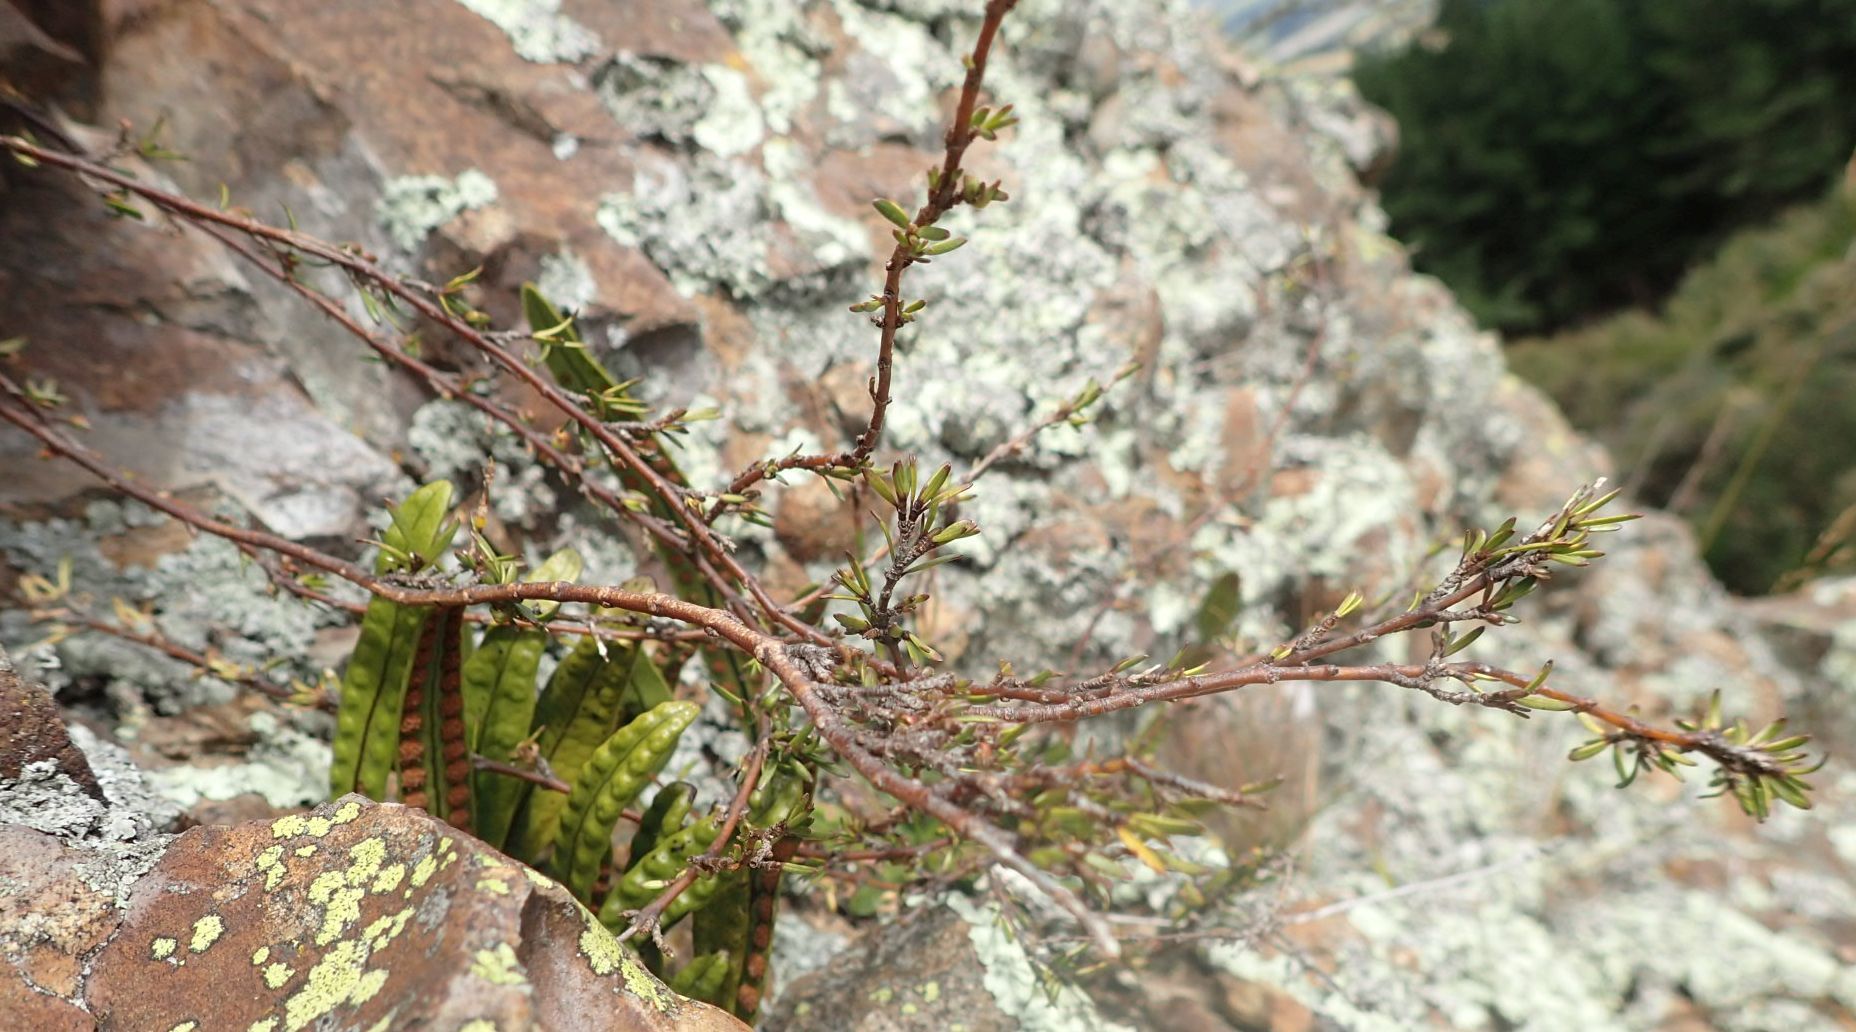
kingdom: Plantae
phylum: Tracheophyta
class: Magnoliopsida
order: Gentianales
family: Rubiaceae
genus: Coprosma
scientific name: Coprosma acerosa
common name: Sand coprosma
